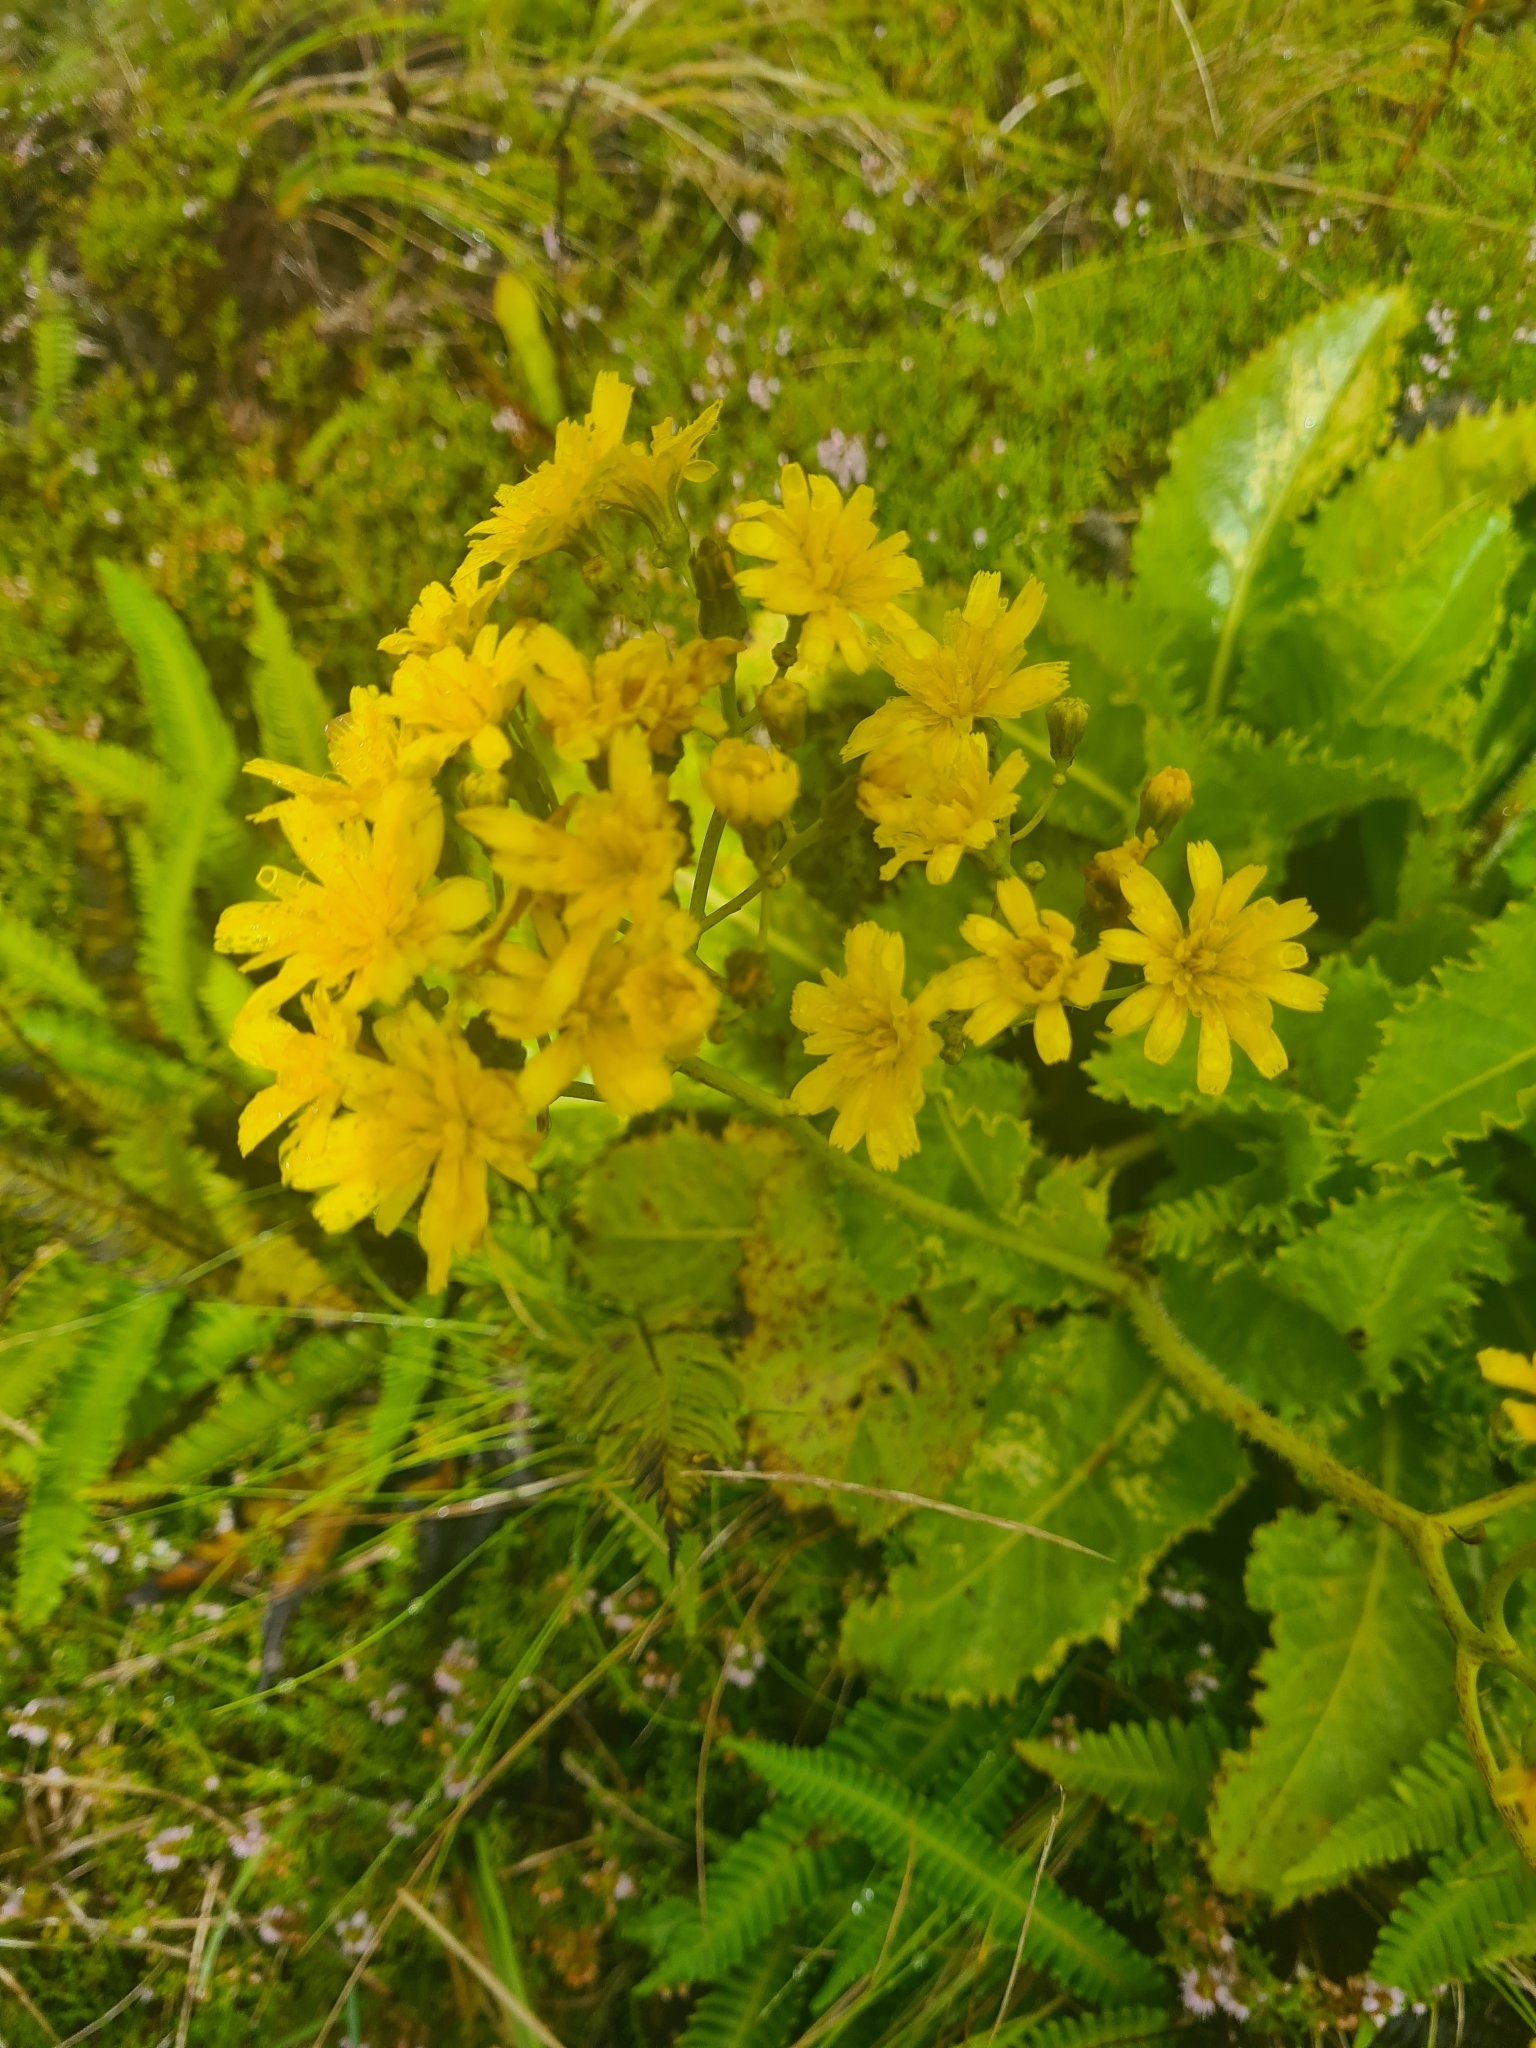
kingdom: Plantae
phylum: Tracheophyta
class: Magnoliopsida
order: Asterales
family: Asteraceae
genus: Leontodon
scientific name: Leontodon rigens
